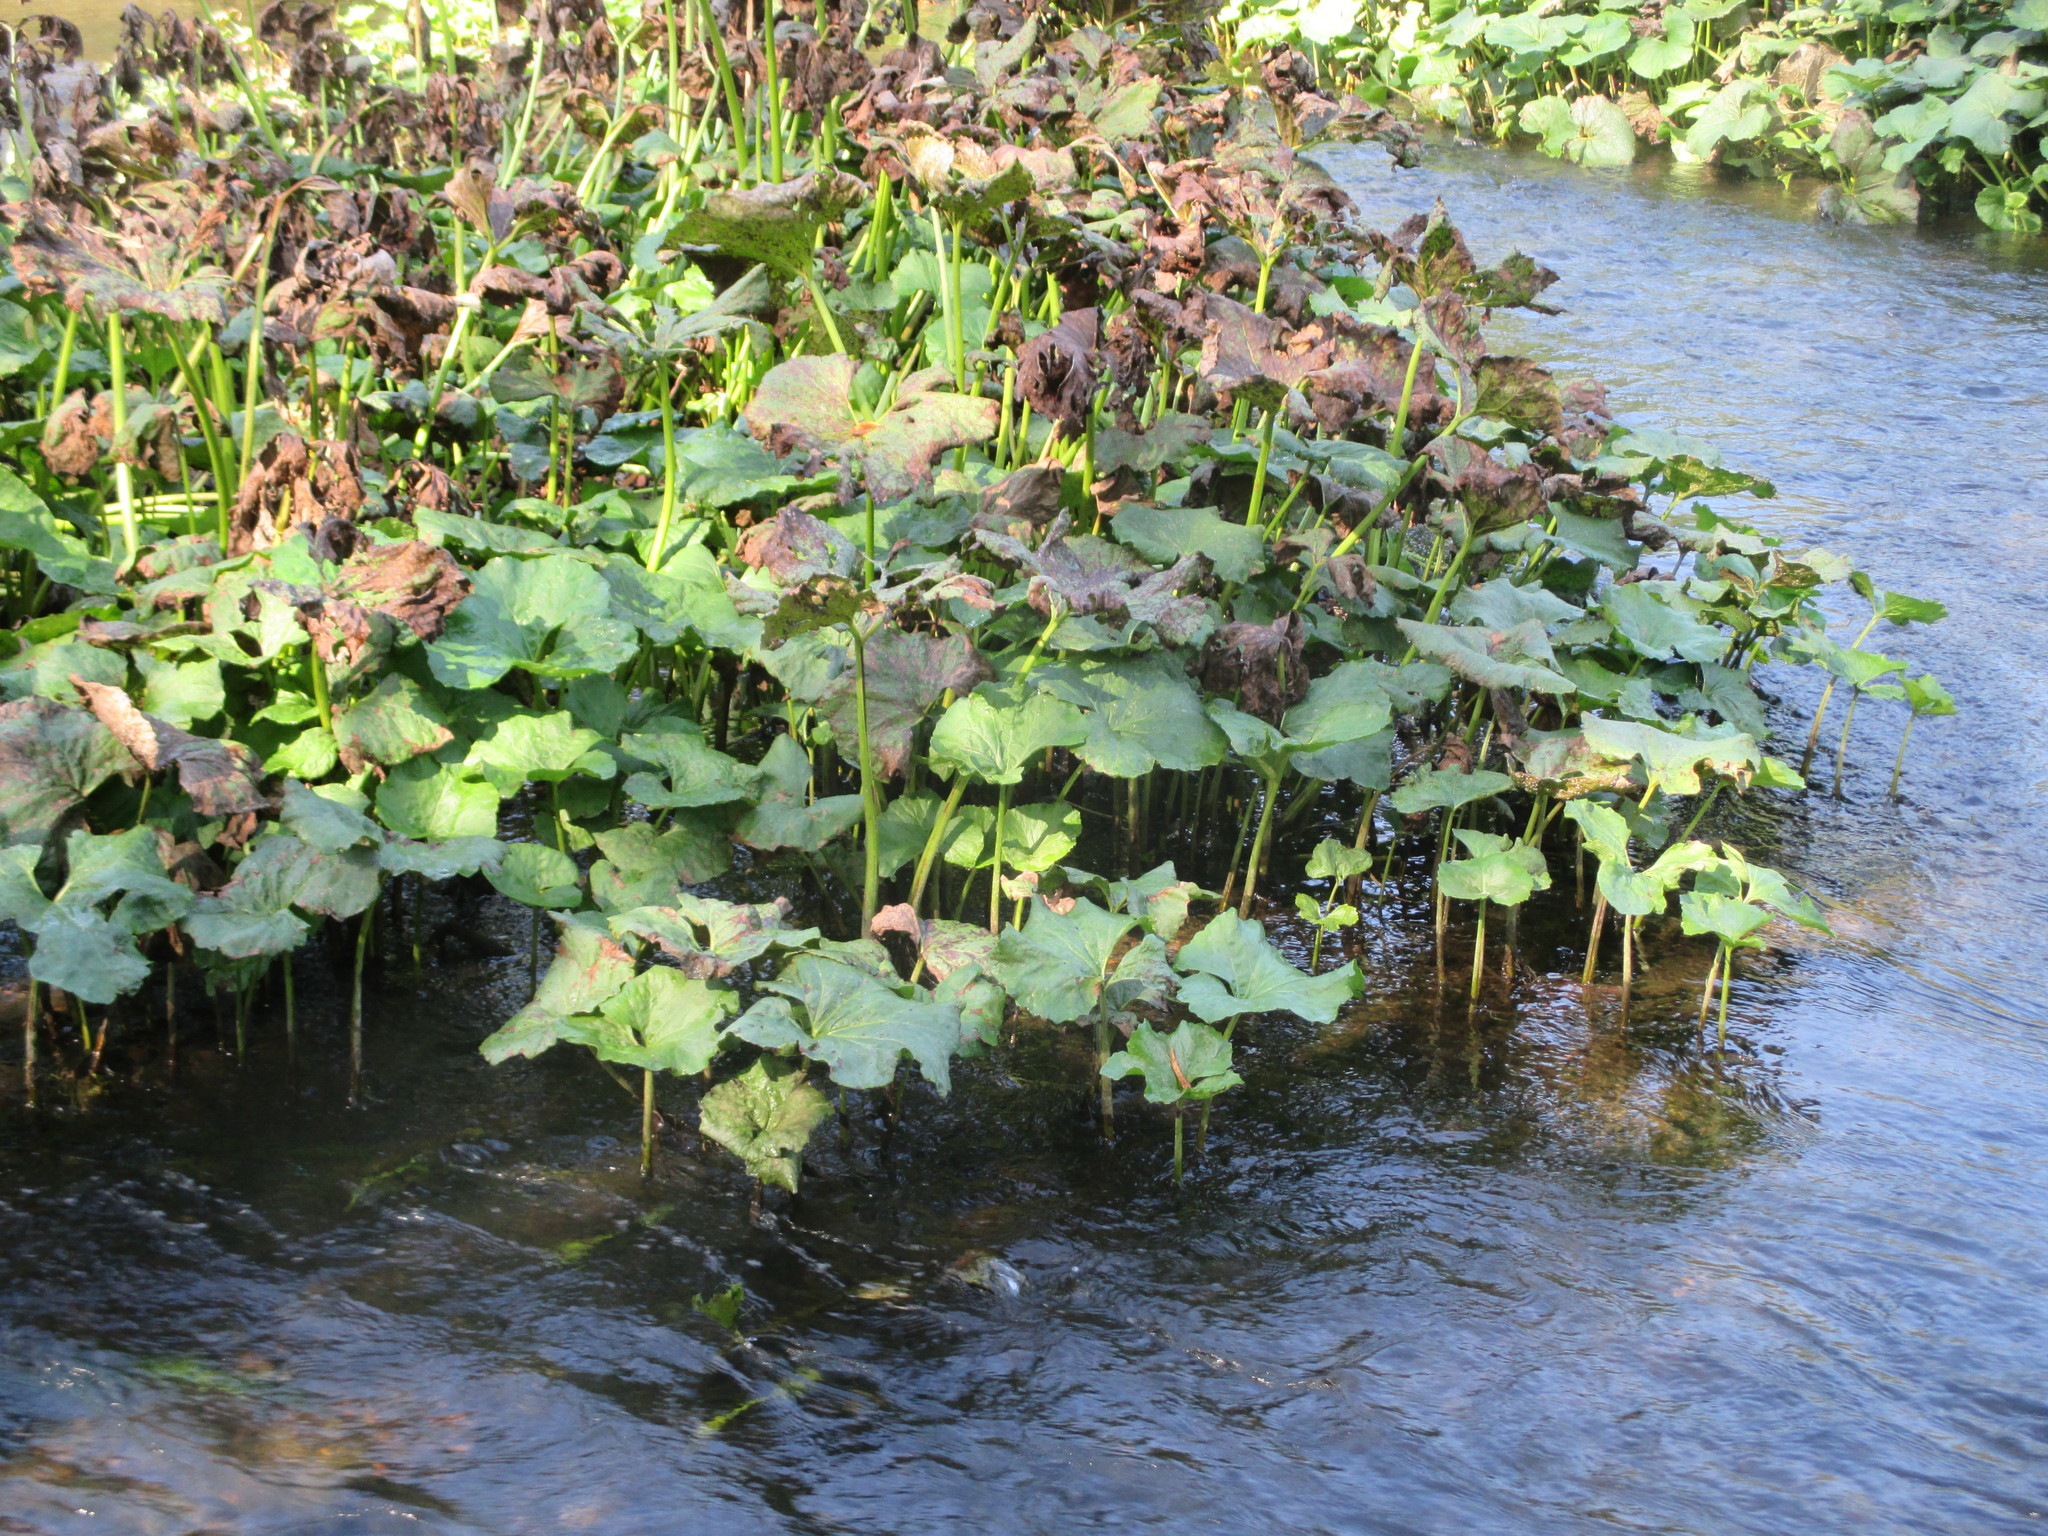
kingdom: Plantae
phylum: Tracheophyta
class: Magnoliopsida
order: Asterales
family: Asteraceae
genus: Petasites
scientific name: Petasites radiatus
